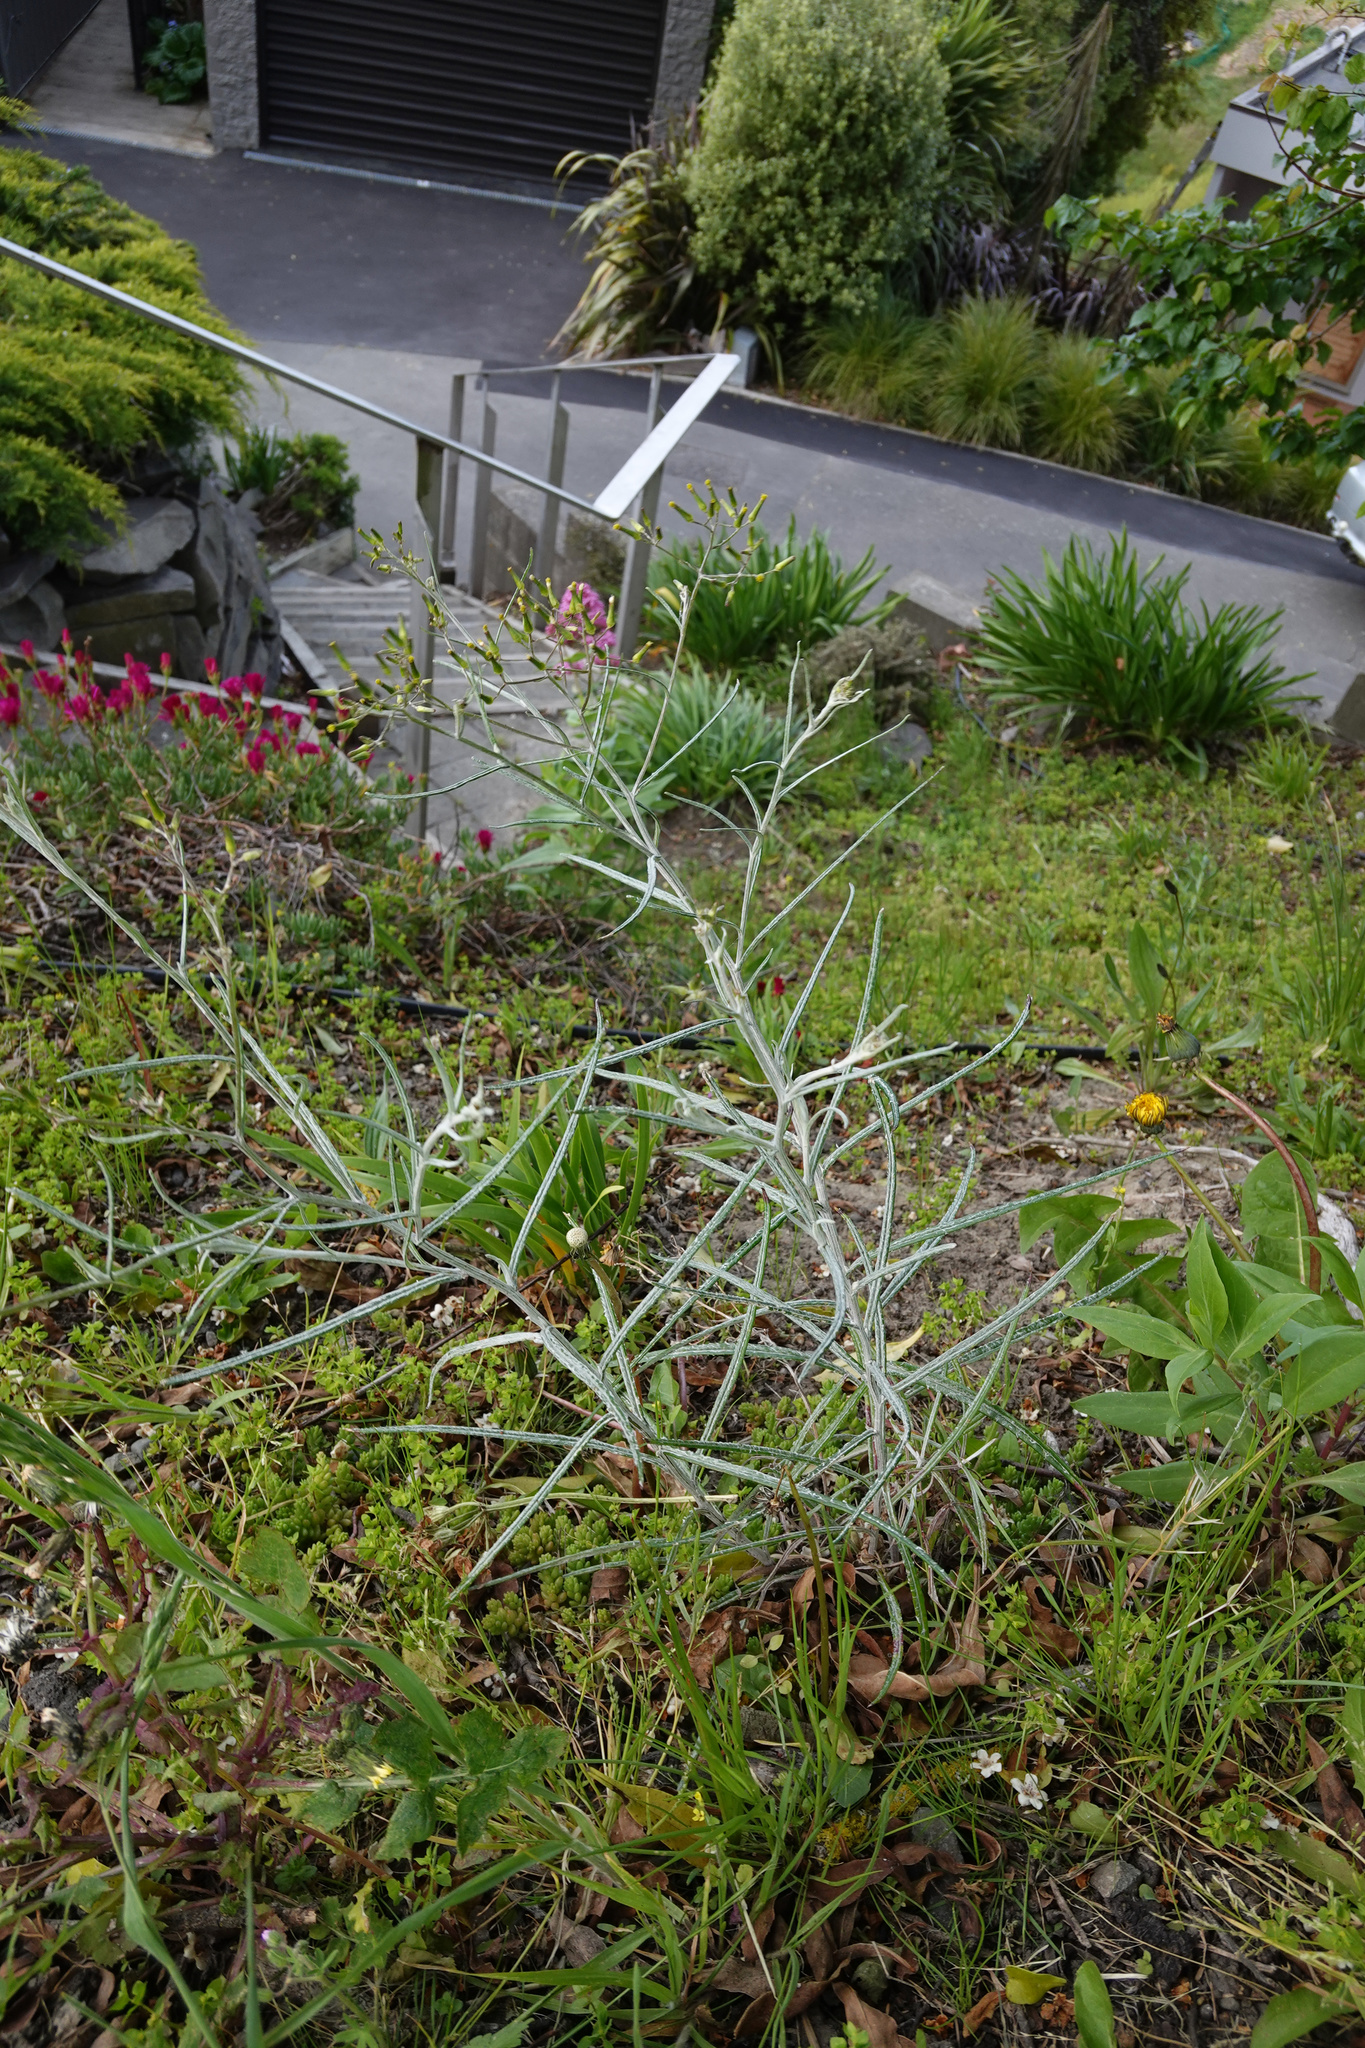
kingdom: Plantae
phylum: Tracheophyta
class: Magnoliopsida
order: Asterales
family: Asteraceae
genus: Senecio
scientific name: Senecio quadridentatus
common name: Cotton fireweed
